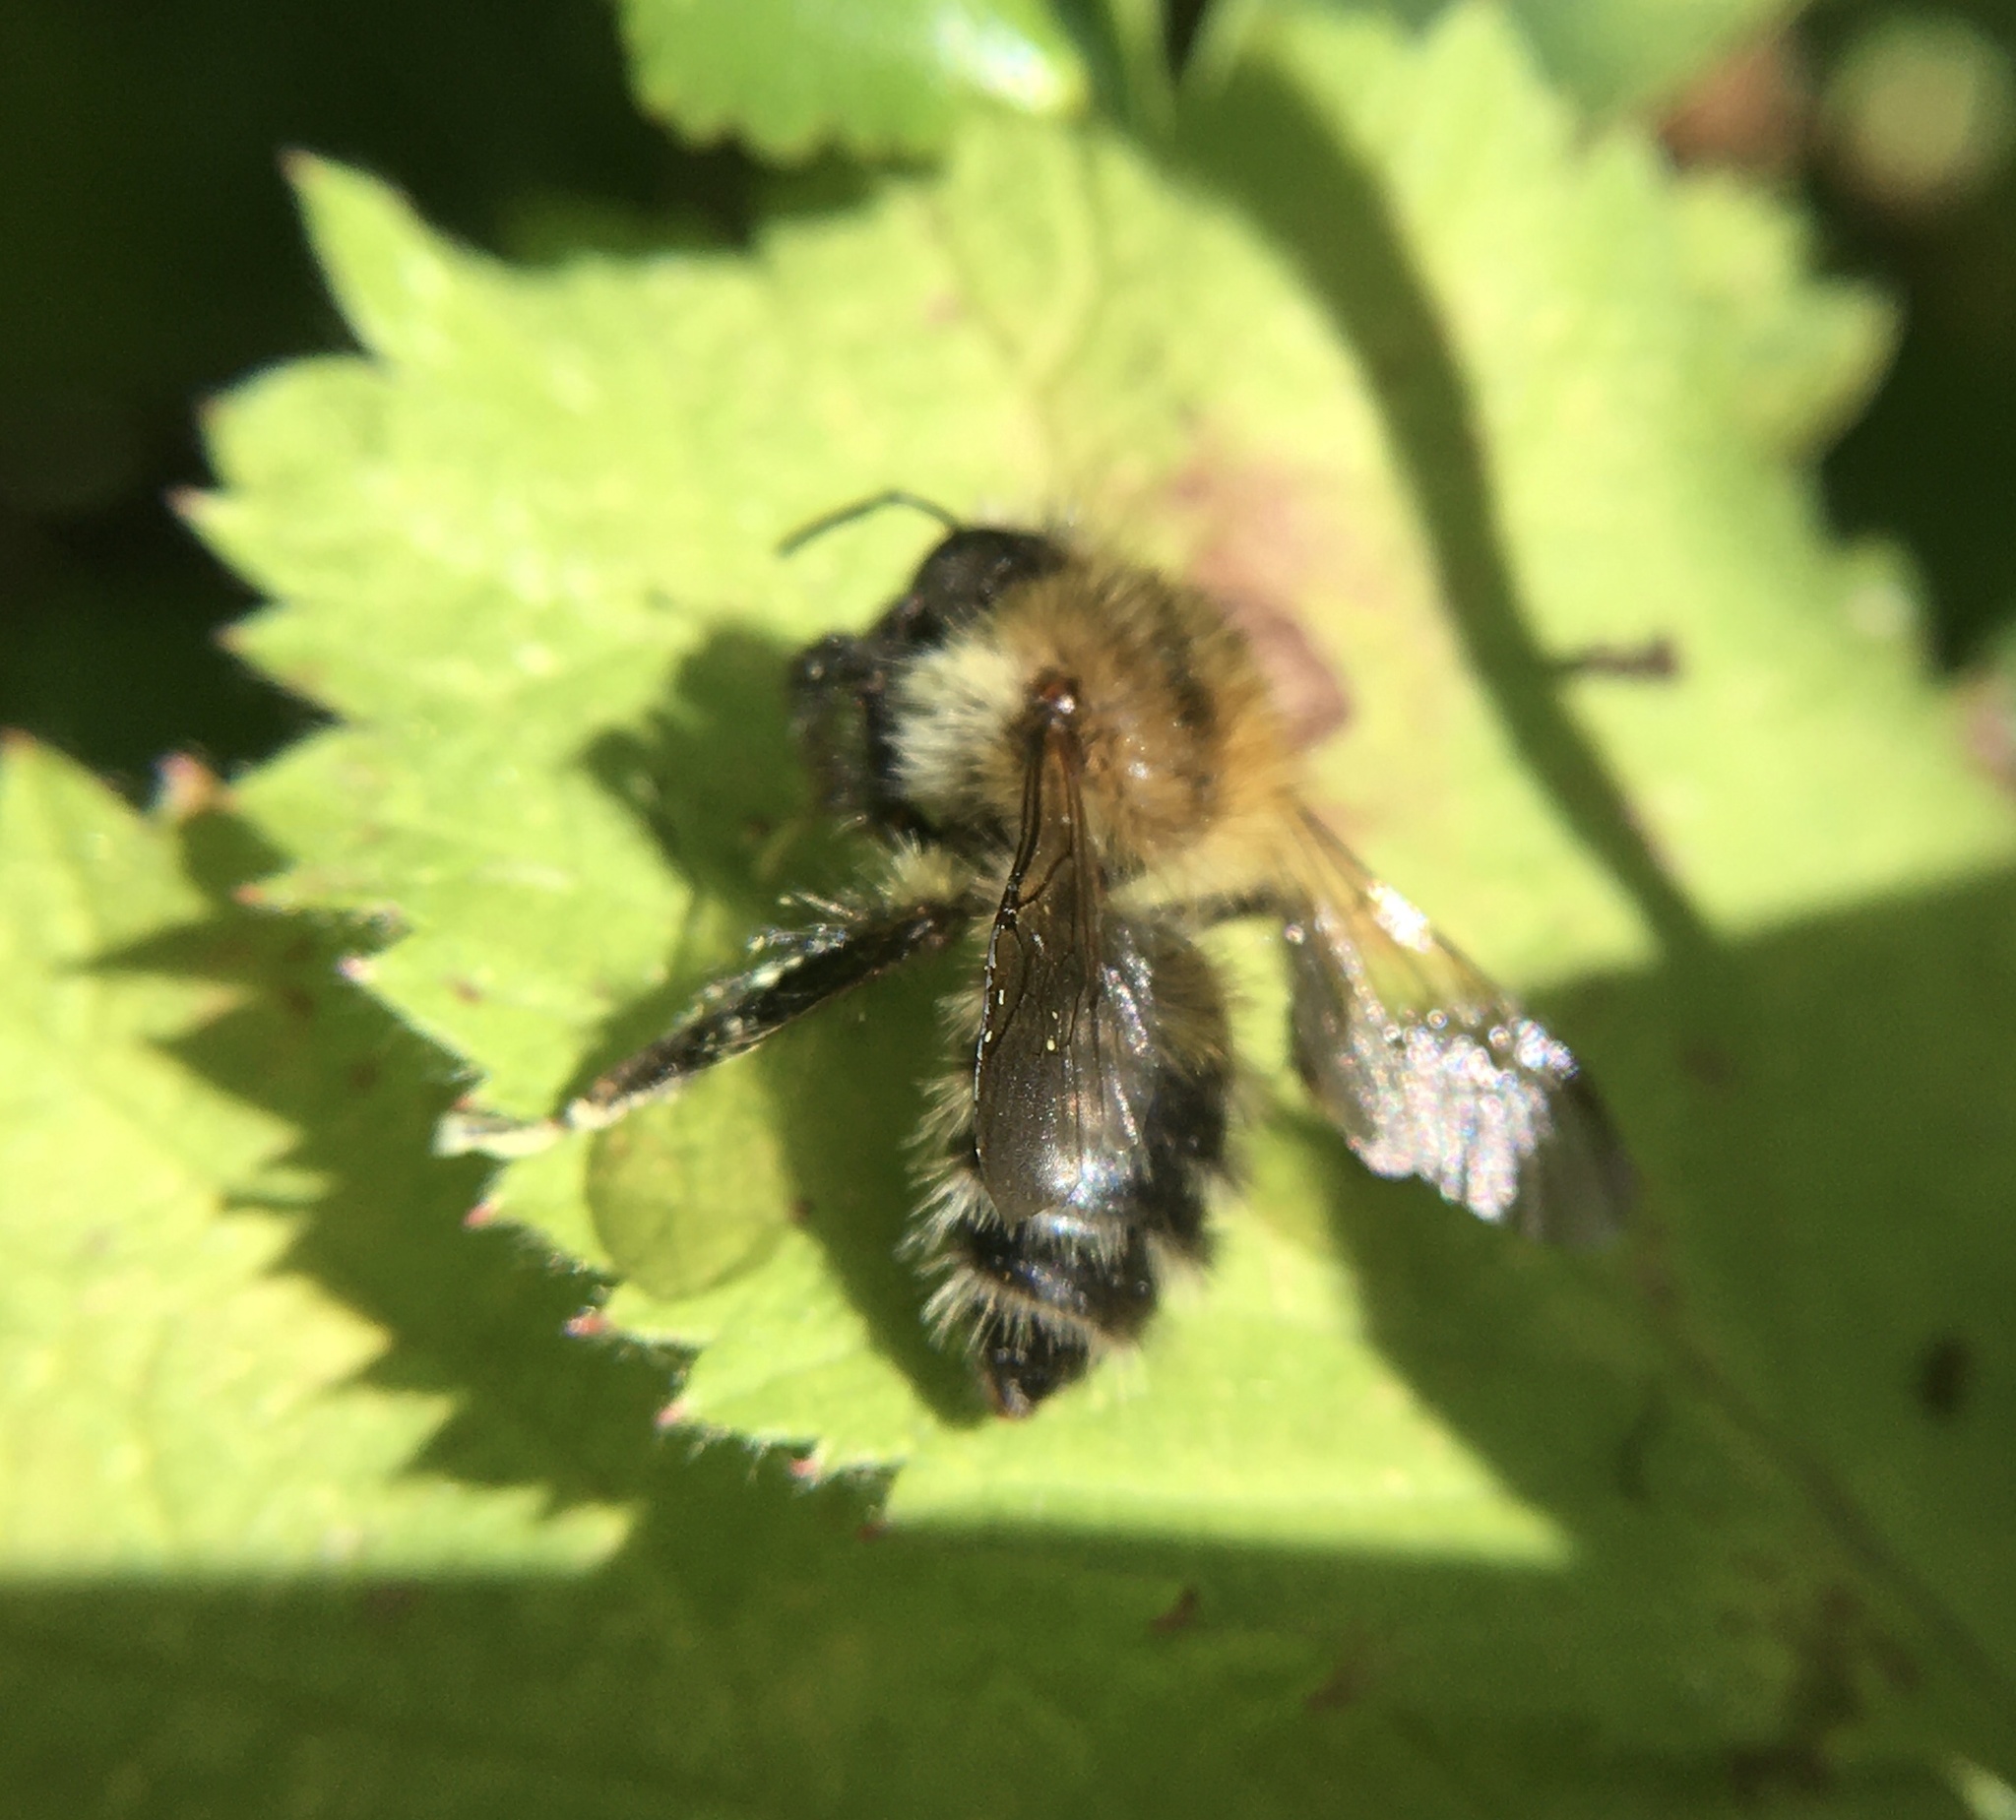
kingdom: Animalia
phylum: Arthropoda
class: Insecta
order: Hymenoptera
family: Apidae
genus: Bombus
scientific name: Bombus pascuorum
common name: Common carder bee
